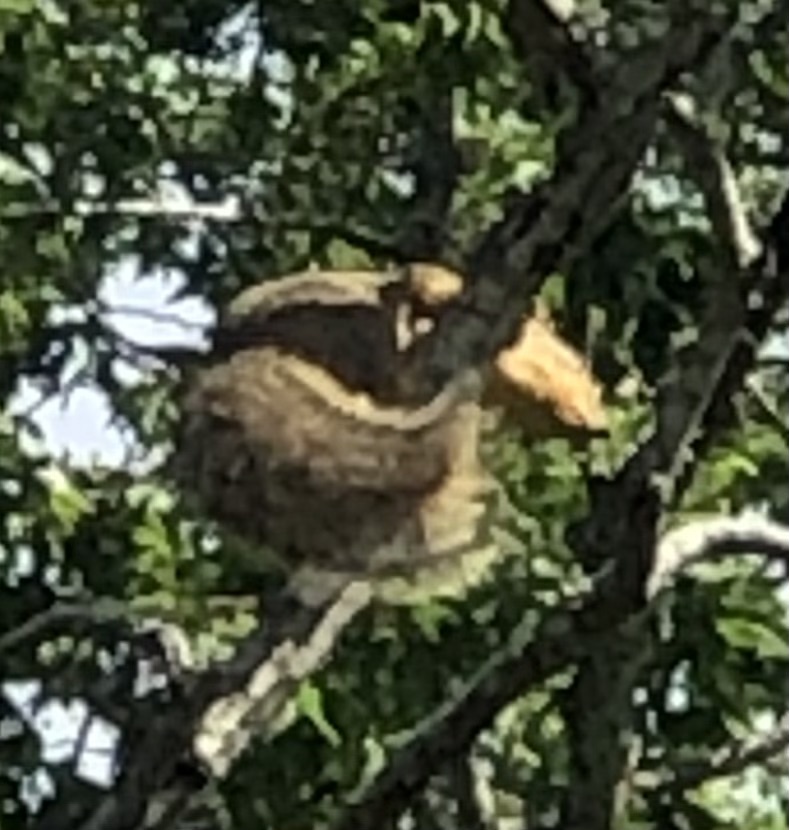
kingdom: Animalia
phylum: Chordata
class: Mammalia
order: Rodentia
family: Sciuridae
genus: Sciurus
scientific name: Sciurus niger
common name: Fox squirrel
